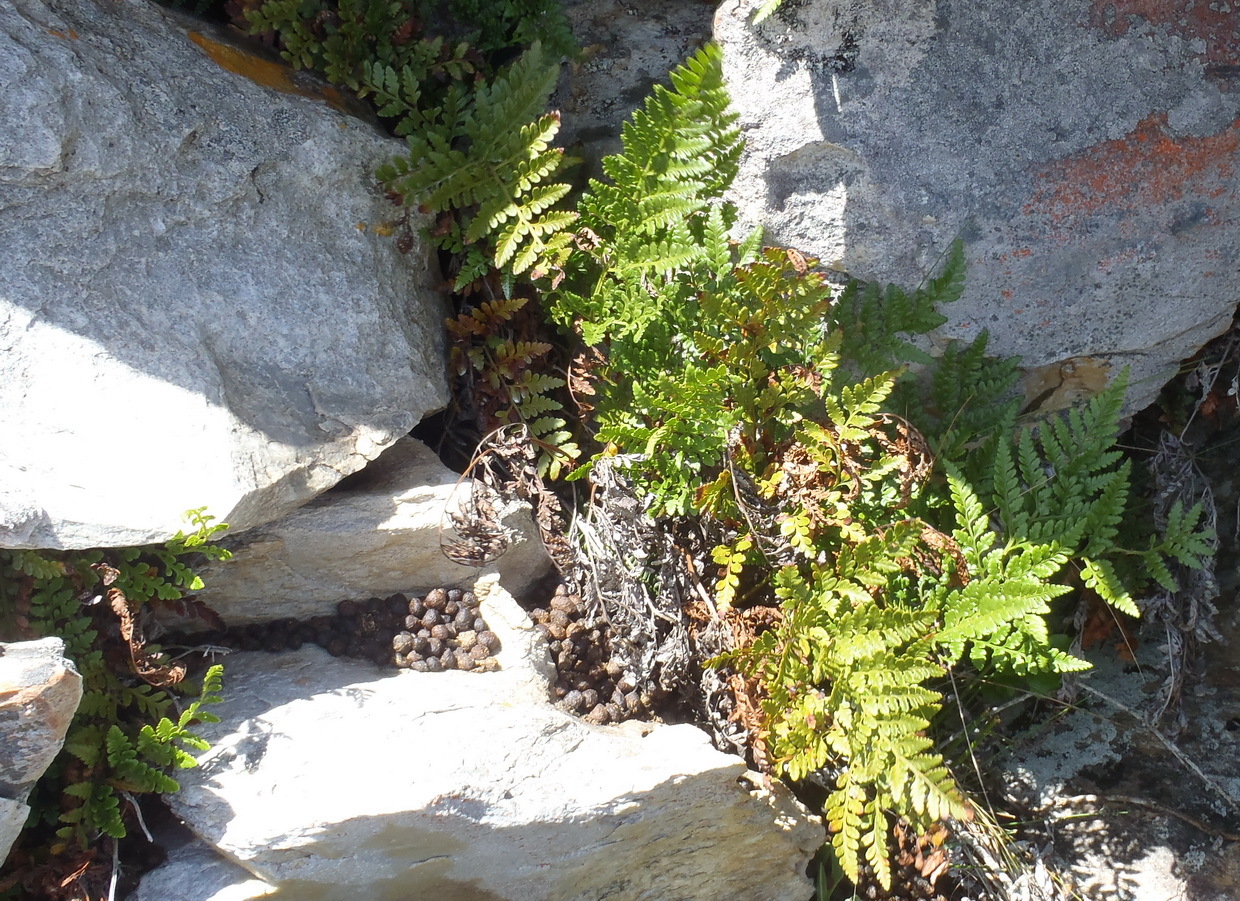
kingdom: Plantae
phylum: Tracheophyta
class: Polypodiopsida
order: Polypodiales
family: Dryopteridaceae
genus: Rumohra
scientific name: Rumohra adiantiformis
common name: Leather fern
